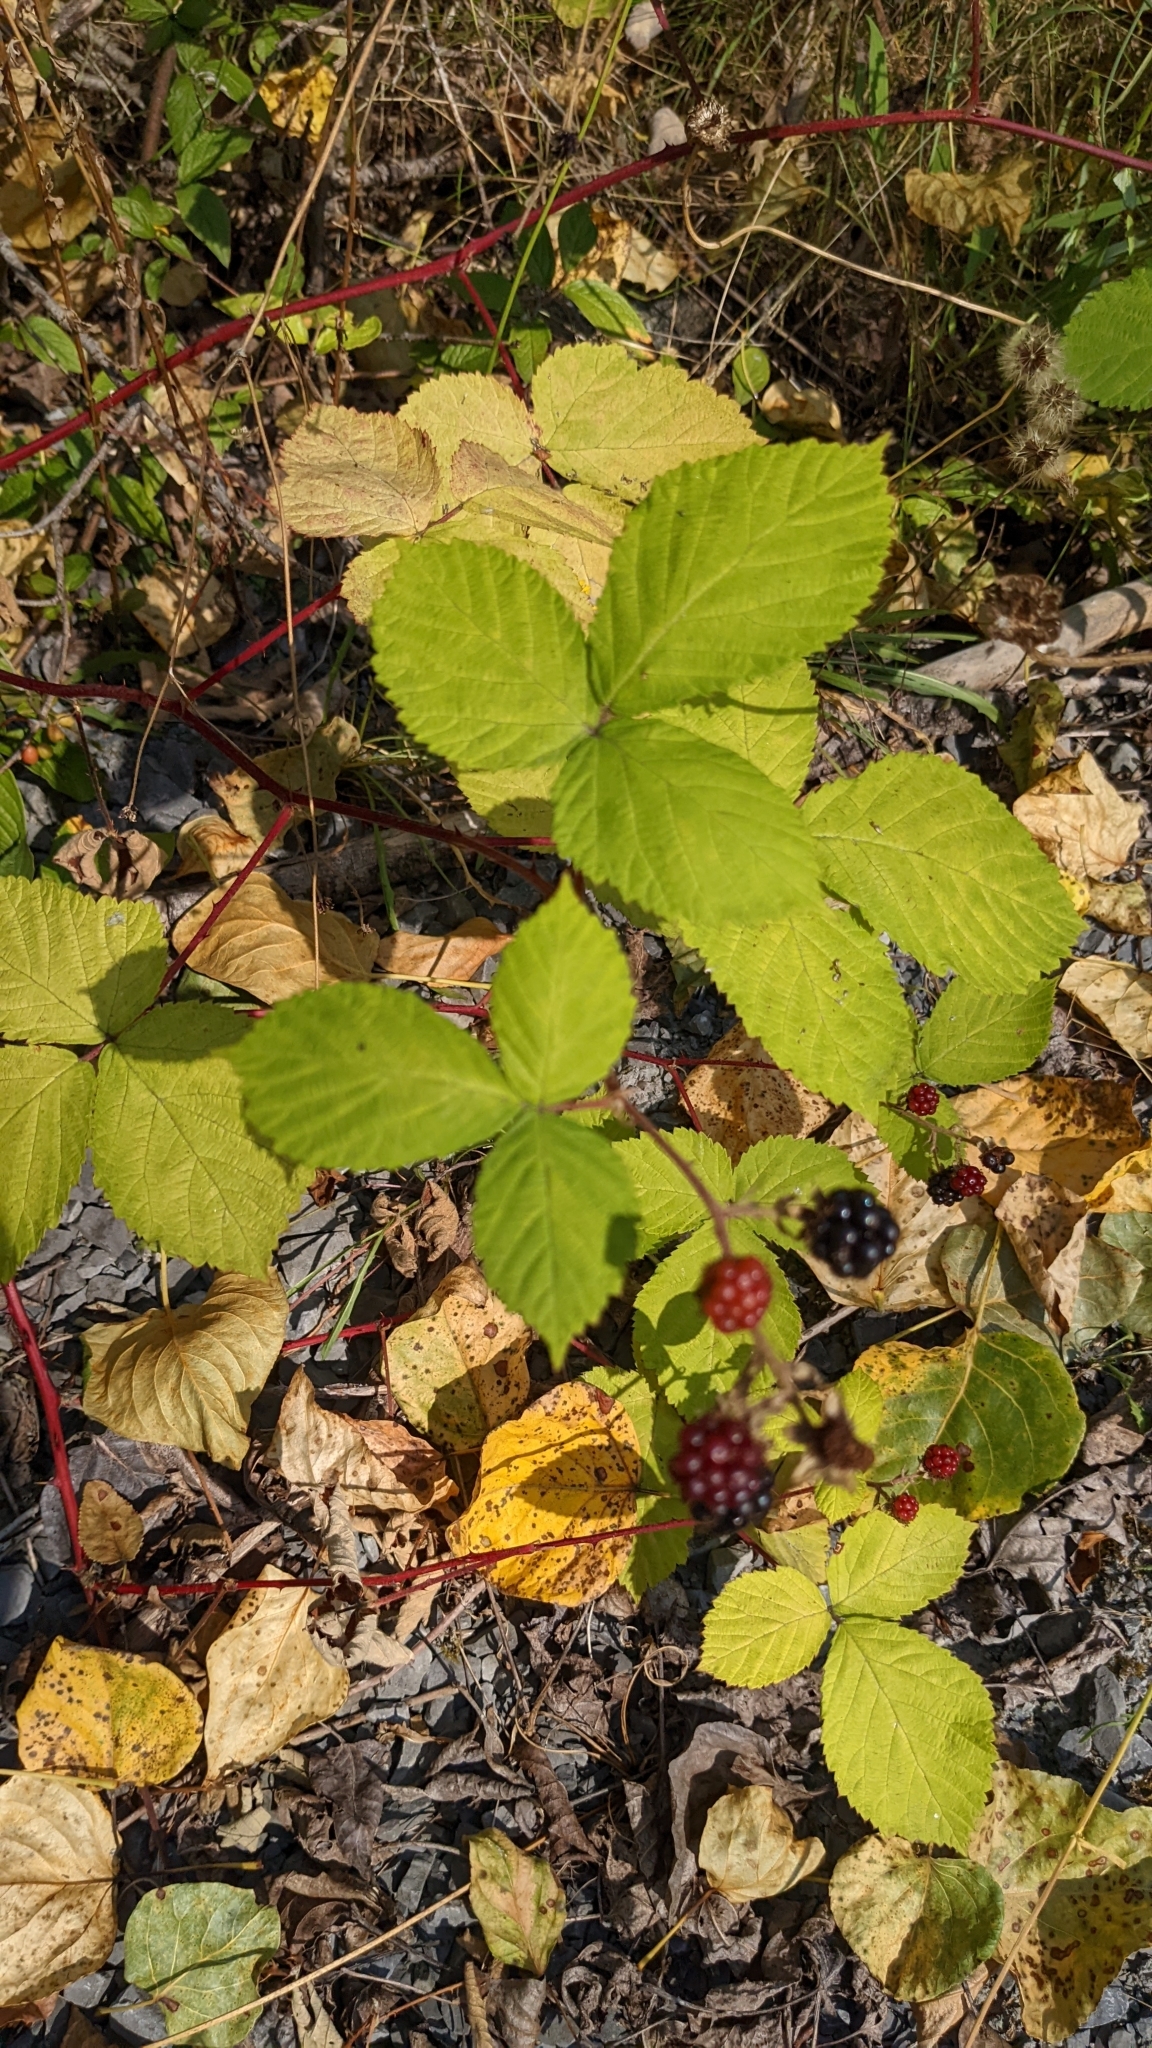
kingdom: Plantae
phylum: Tracheophyta
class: Magnoliopsida
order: Rosales
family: Rosaceae
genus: Rubus
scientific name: Rubus armeniacus
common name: Himalayan blackberry
